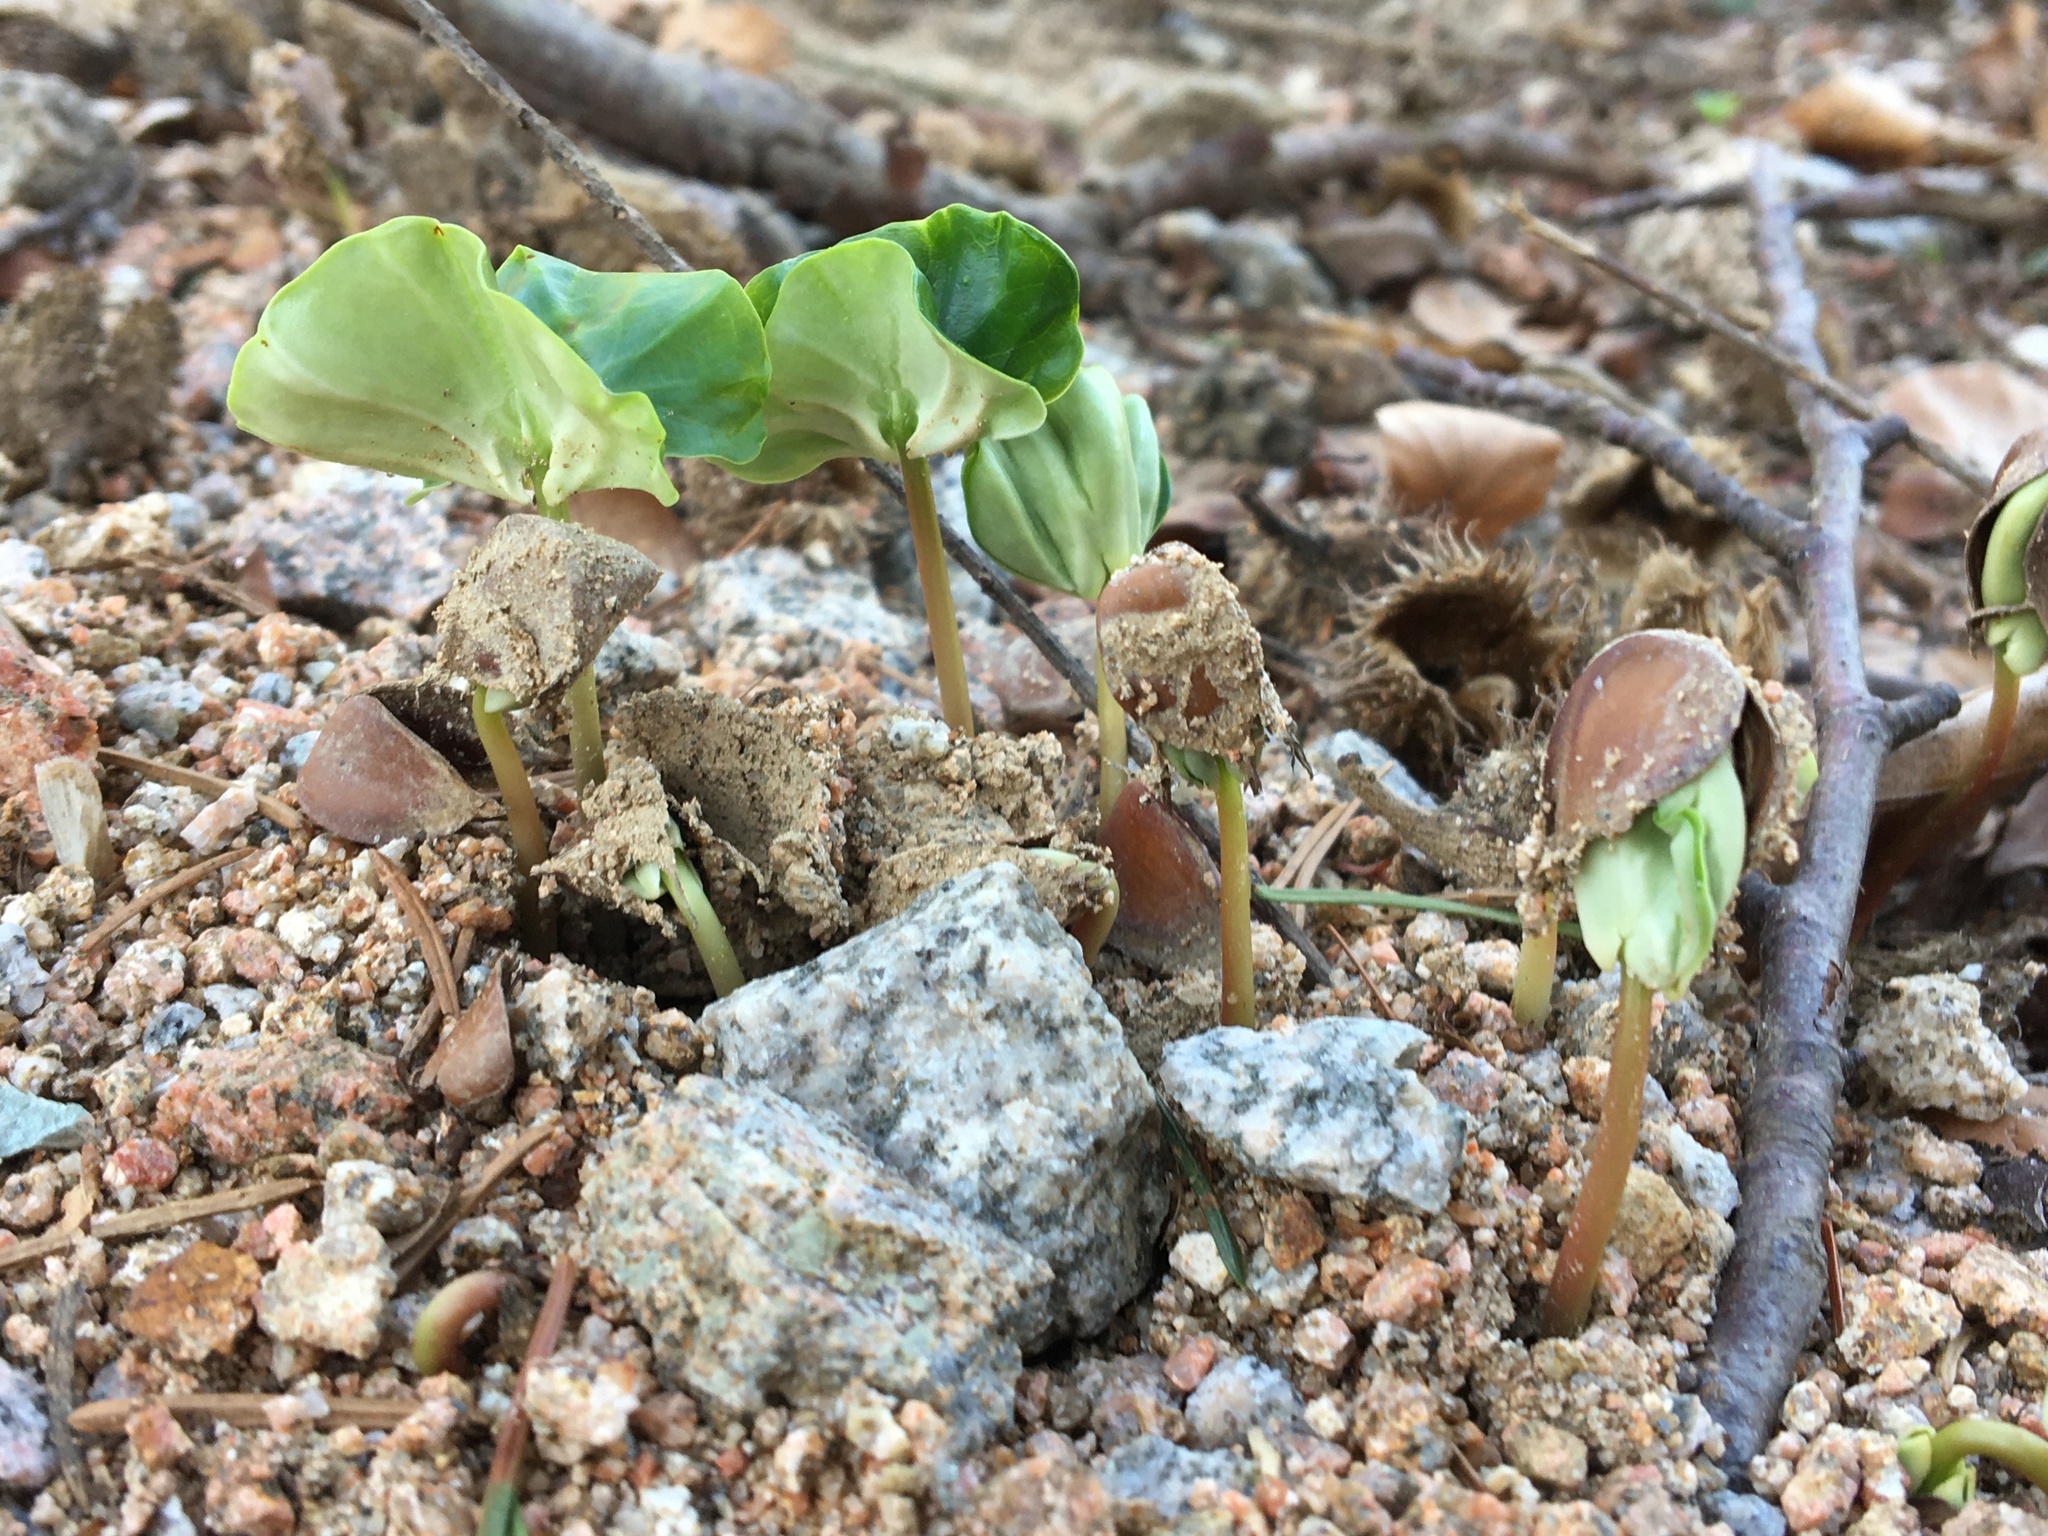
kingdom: Plantae
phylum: Tracheophyta
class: Magnoliopsida
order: Fagales
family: Fagaceae
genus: Fagus
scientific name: Fagus sylvatica
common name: Beech
